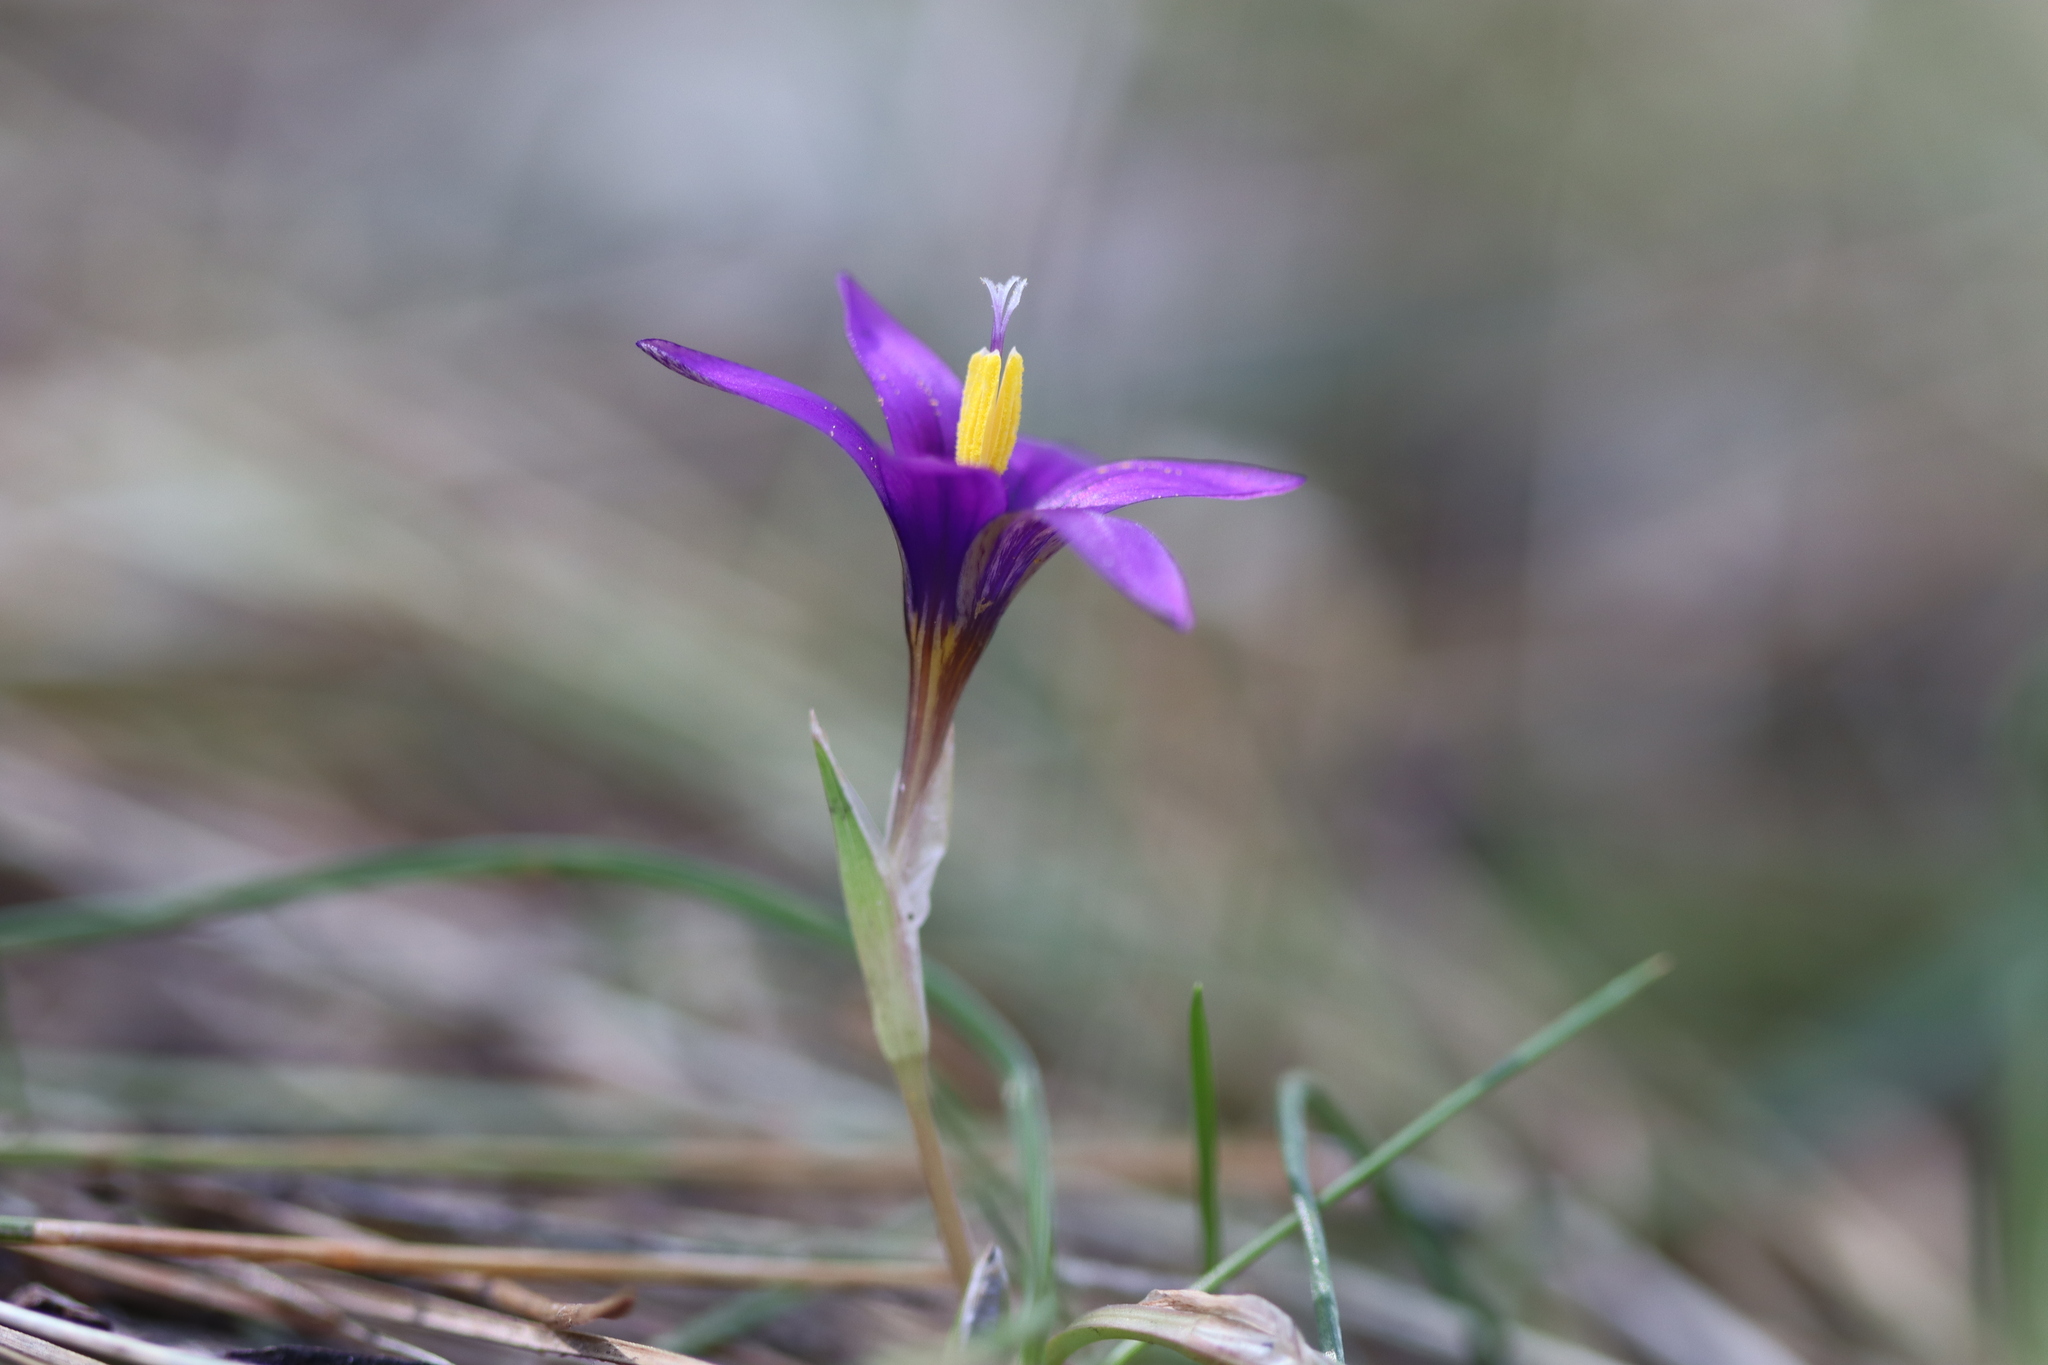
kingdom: Plantae
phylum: Tracheophyta
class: Liliopsida
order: Asparagales
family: Iridaceae
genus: Romulea
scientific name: Romulea tempskyana
